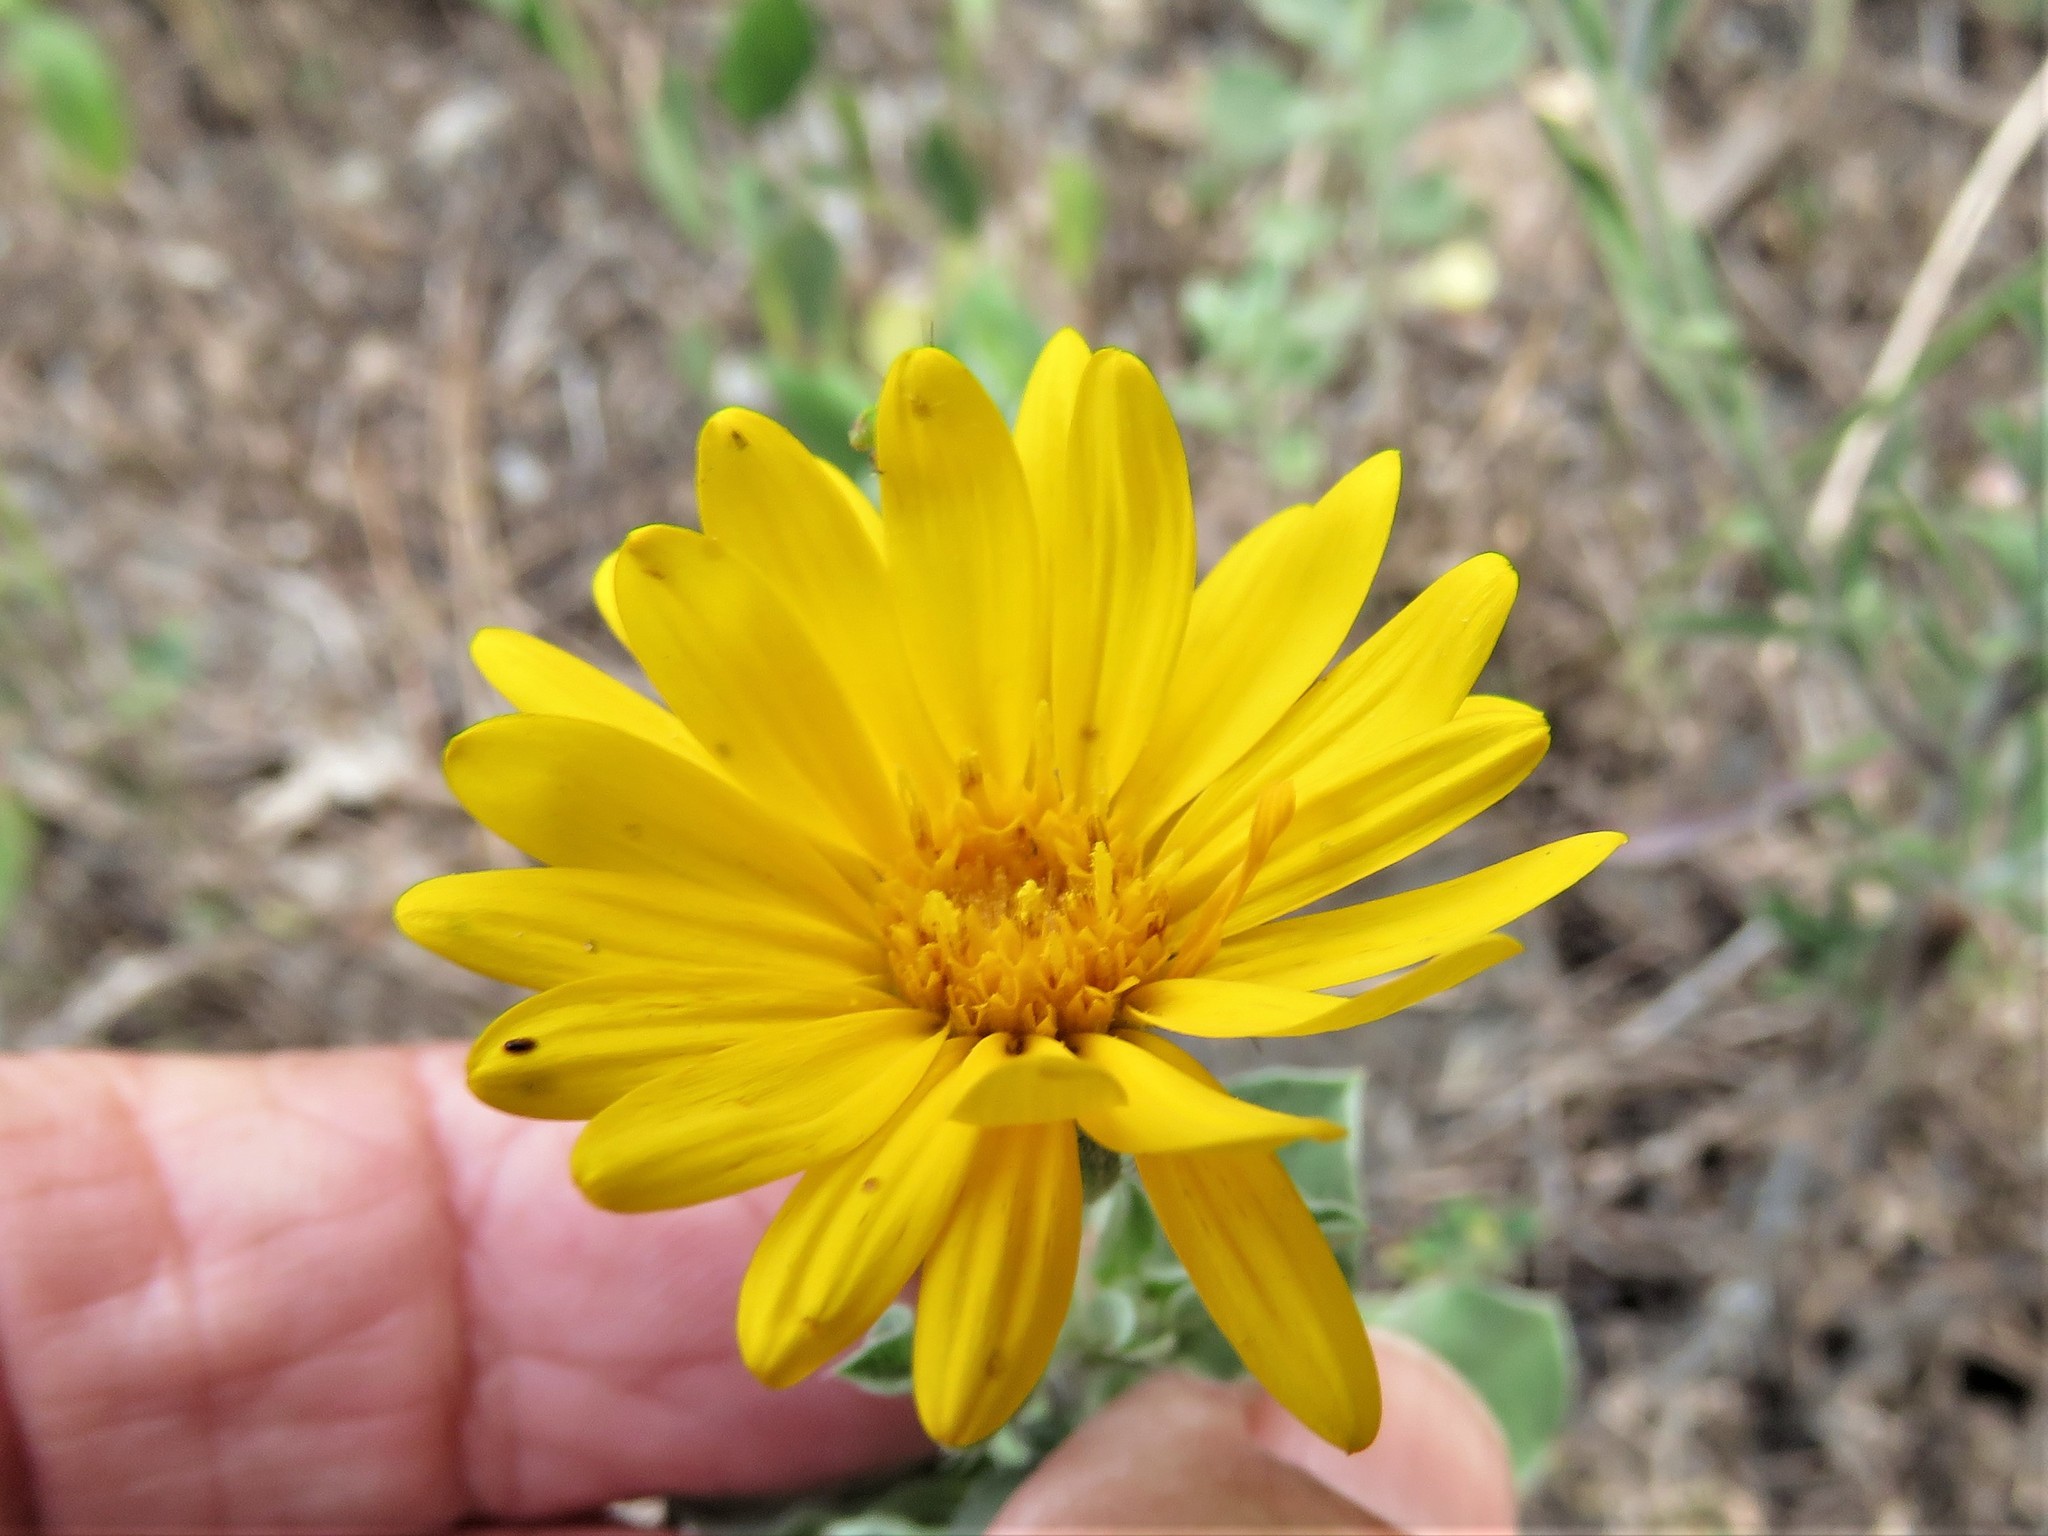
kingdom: Plantae
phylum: Tracheophyta
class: Magnoliopsida
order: Asterales
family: Asteraceae
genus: Heterotheca
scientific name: Heterotheca mucronata
